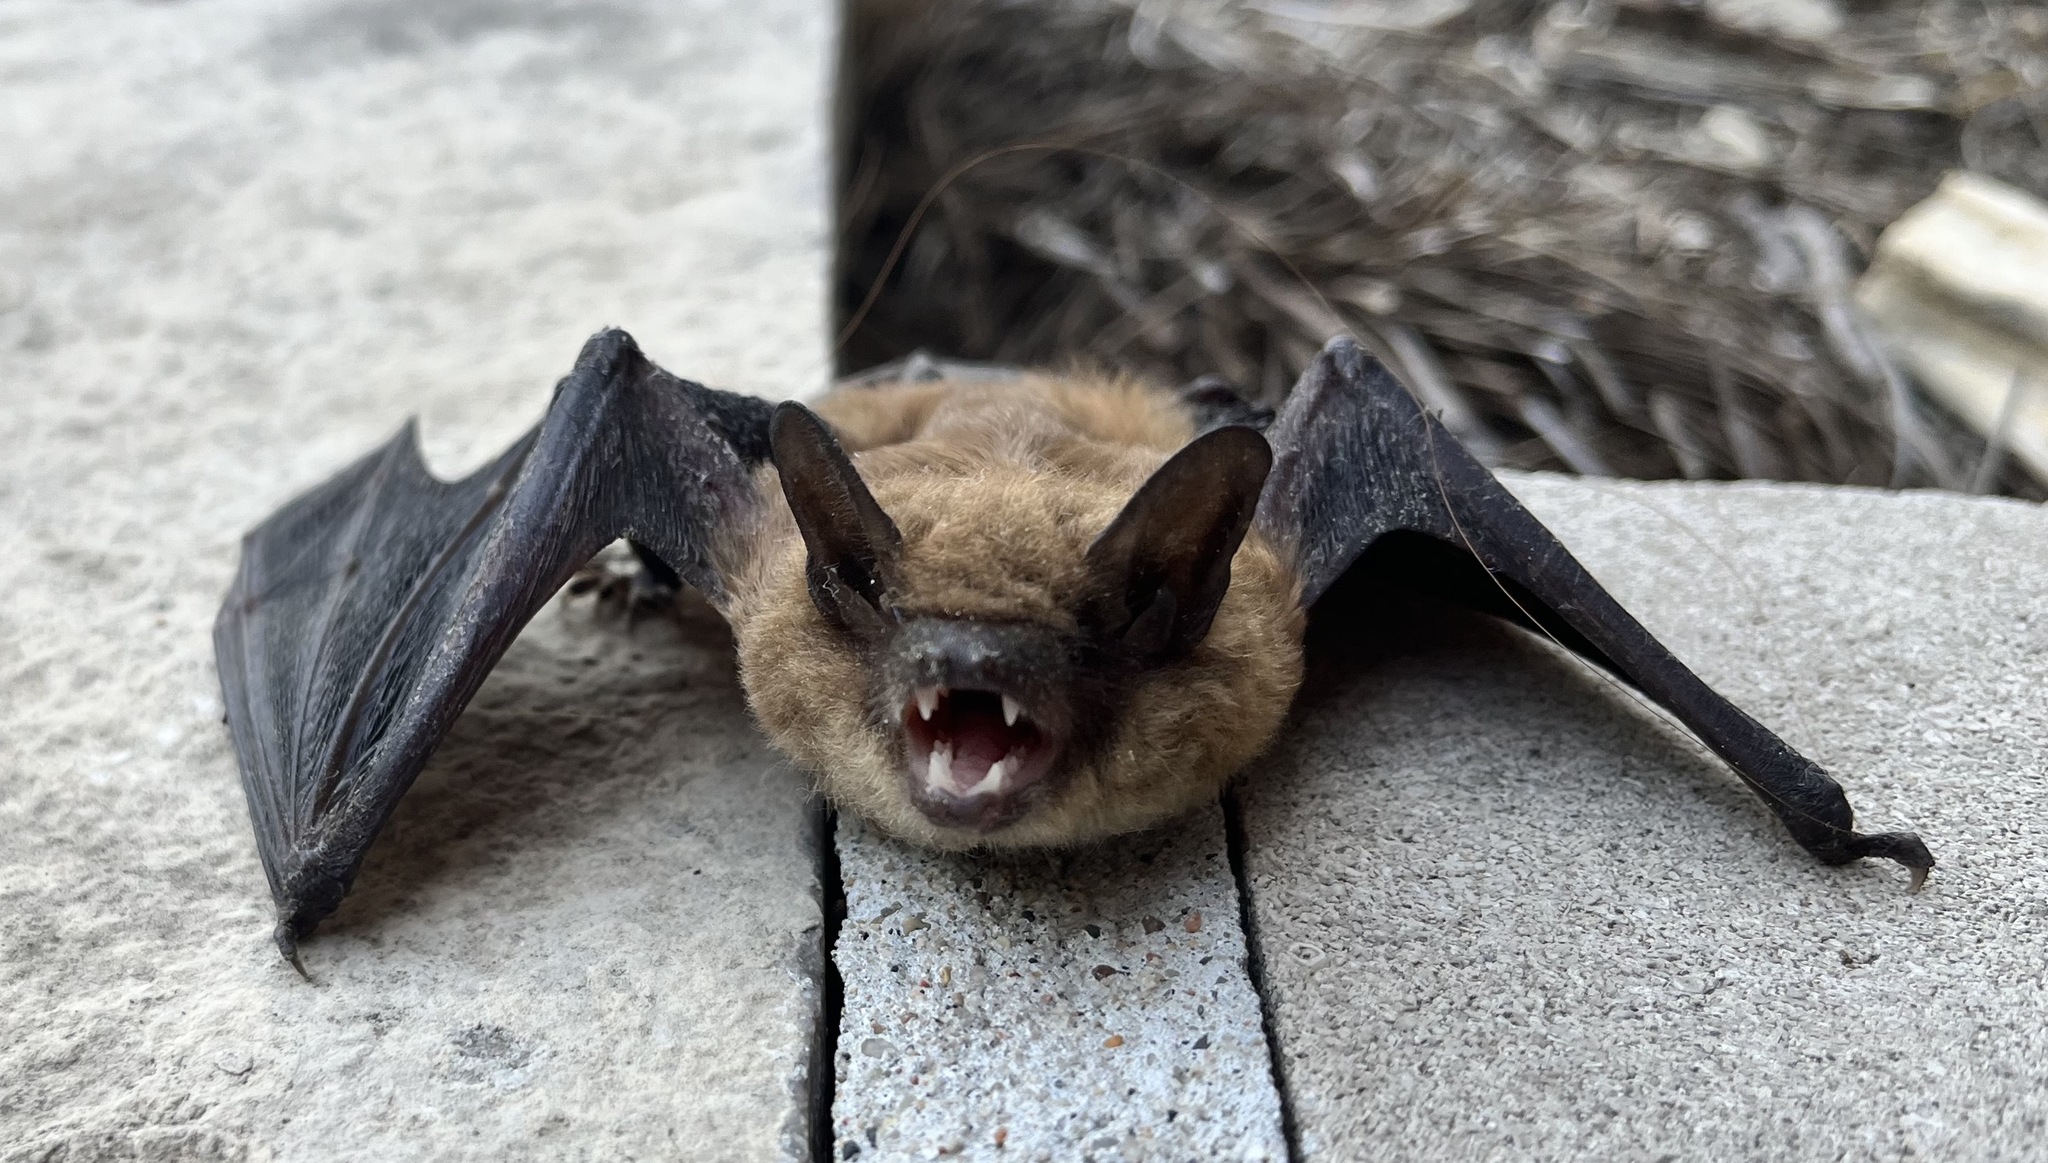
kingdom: Animalia
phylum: Chordata
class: Mammalia
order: Chiroptera
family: Vespertilionidae
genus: Eptesicus
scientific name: Eptesicus fuscus
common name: Big brown bat
